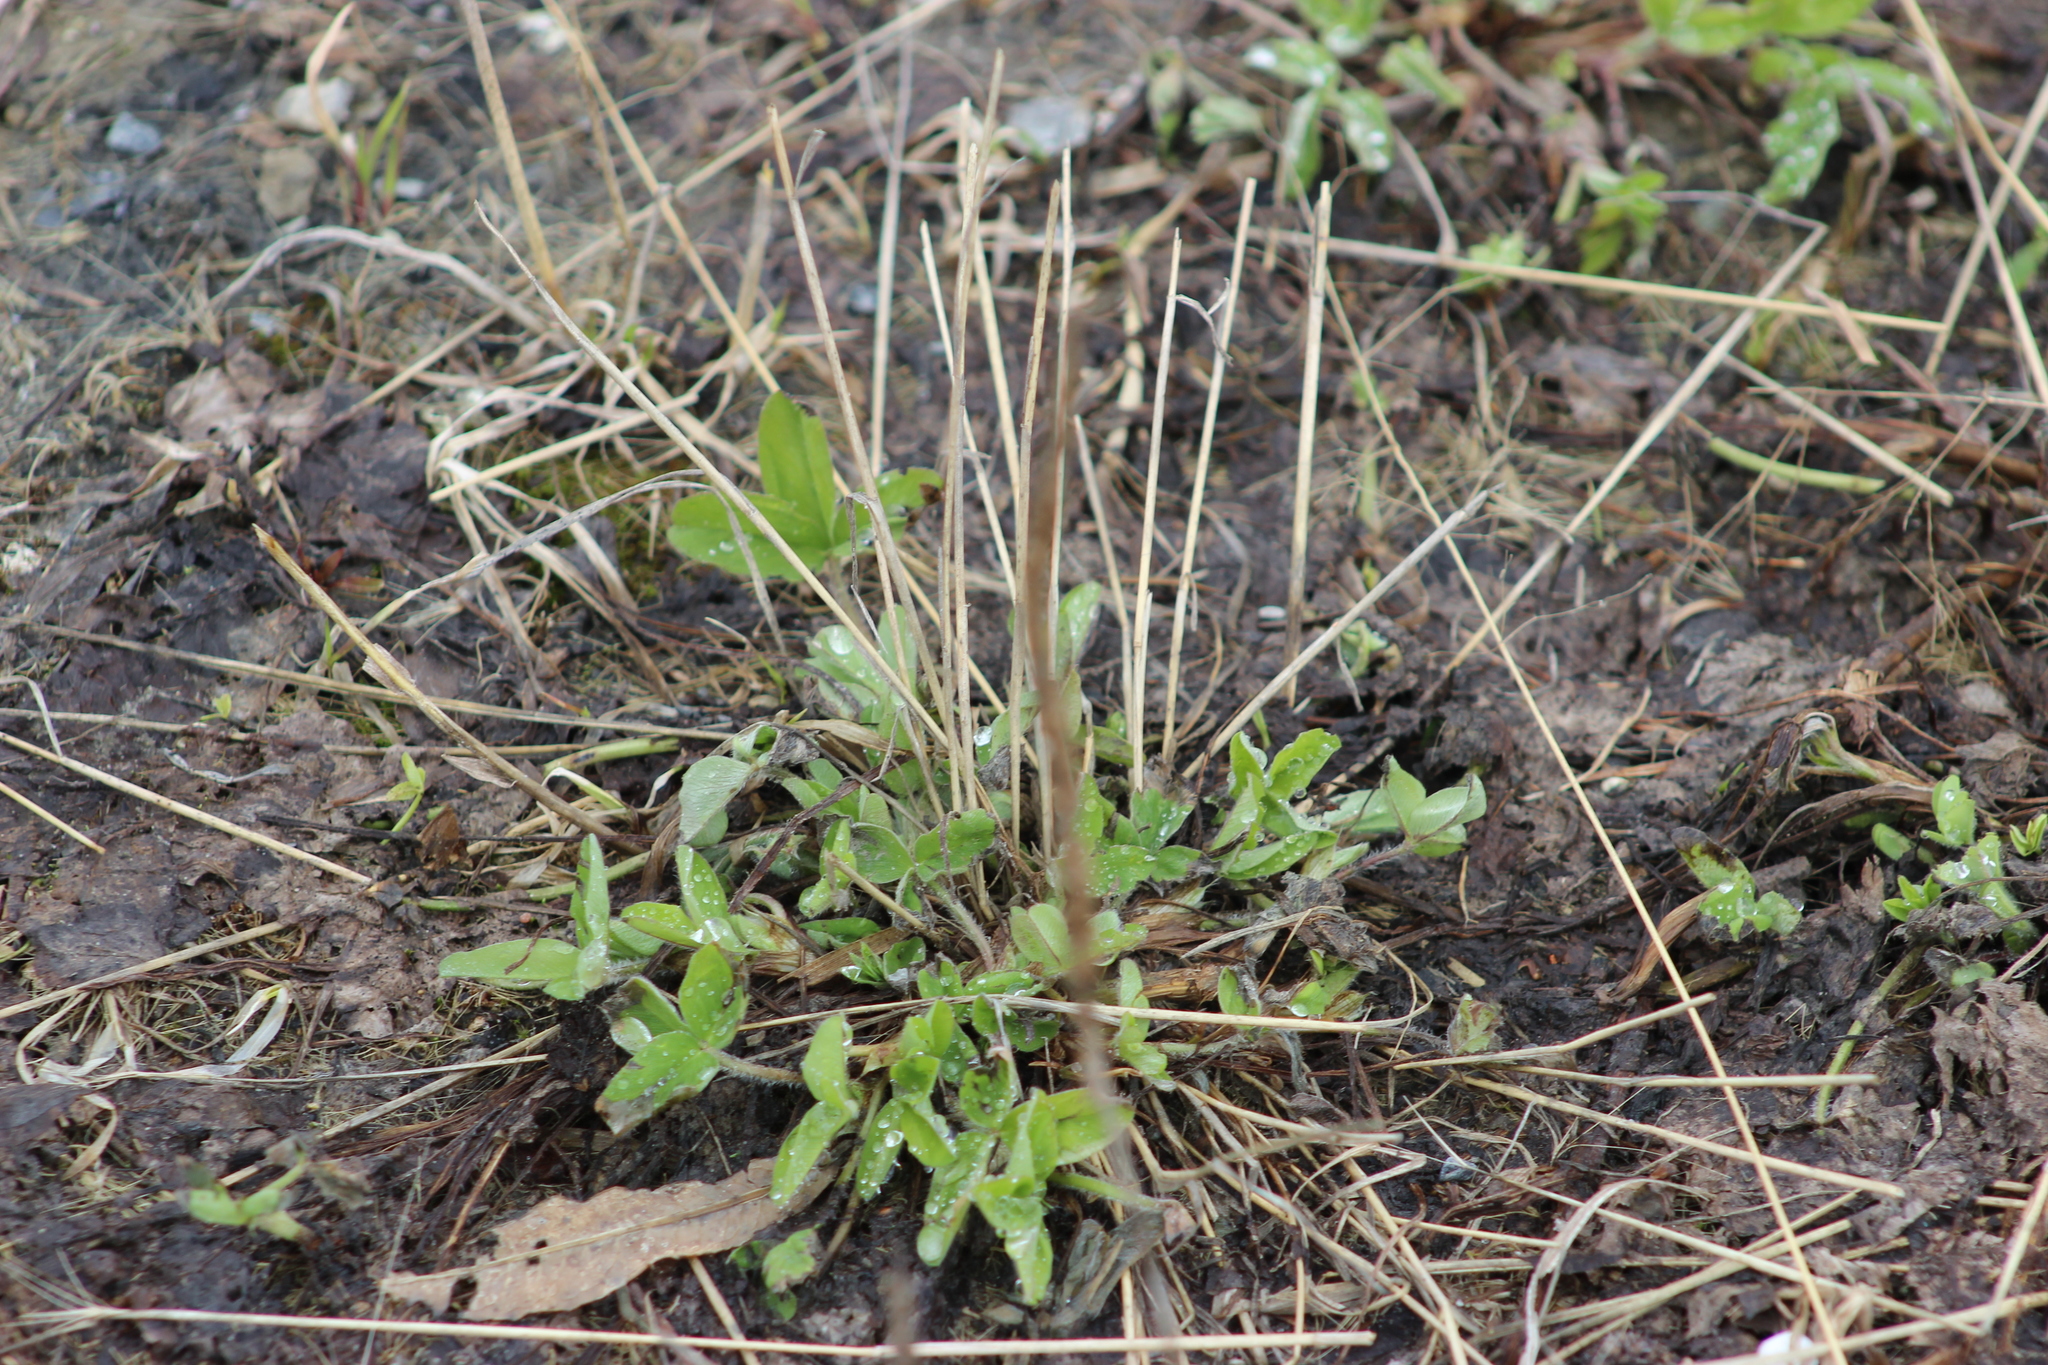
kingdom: Plantae
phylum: Tracheophyta
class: Magnoliopsida
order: Fabales
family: Fabaceae
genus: Trifolium
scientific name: Trifolium pratense
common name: Red clover
